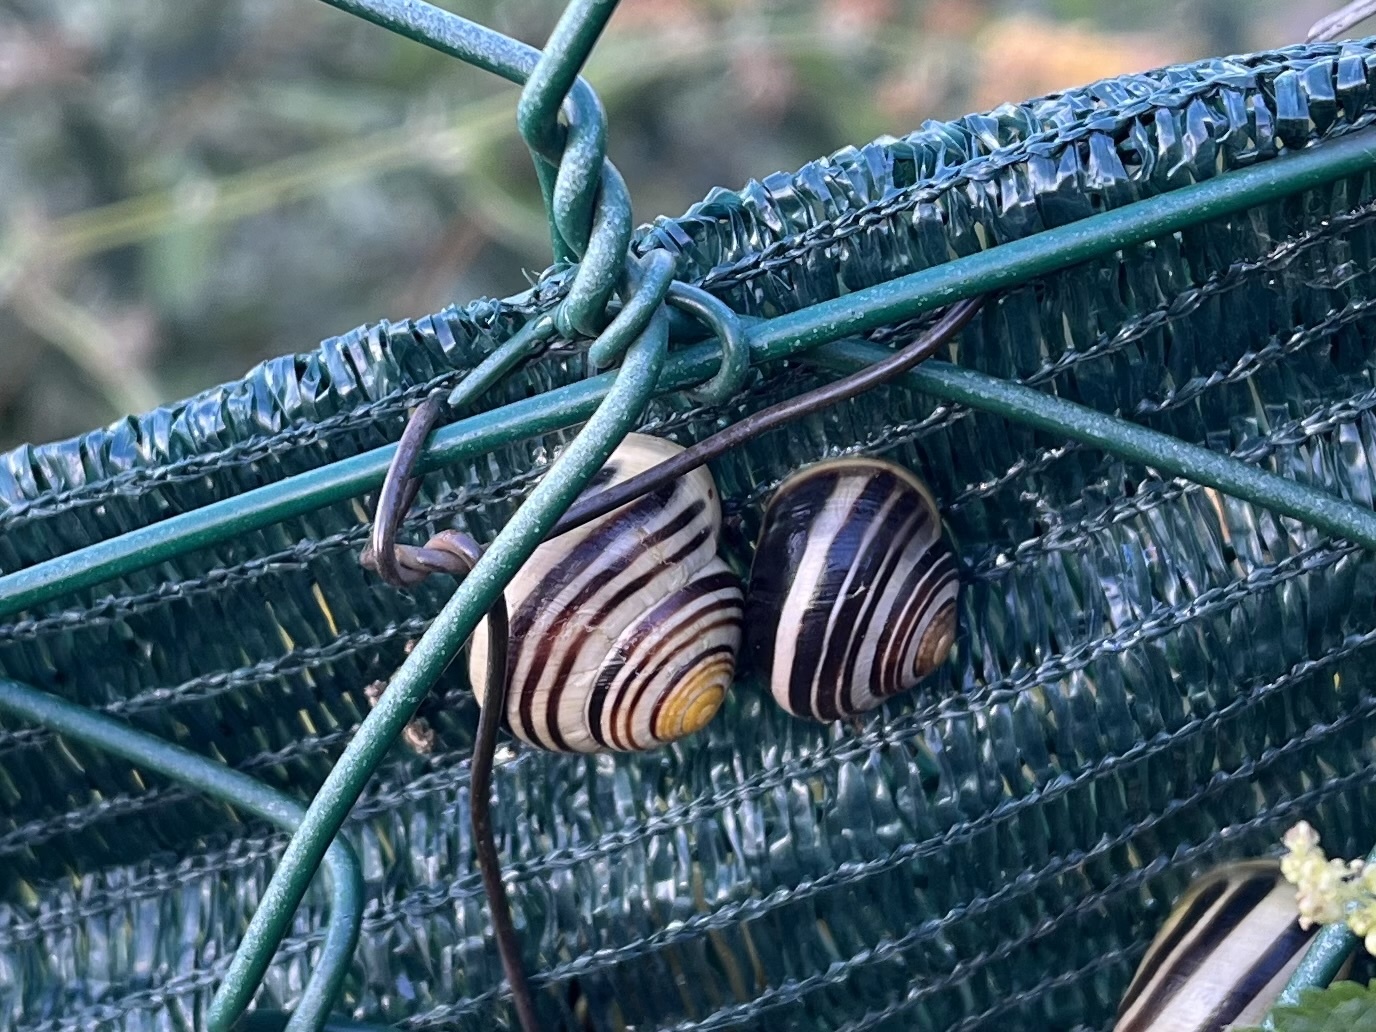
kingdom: Animalia
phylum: Mollusca
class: Gastropoda
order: Stylommatophora
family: Helicidae
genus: Cepaea
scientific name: Cepaea hortensis
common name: White-lip gardensnail
